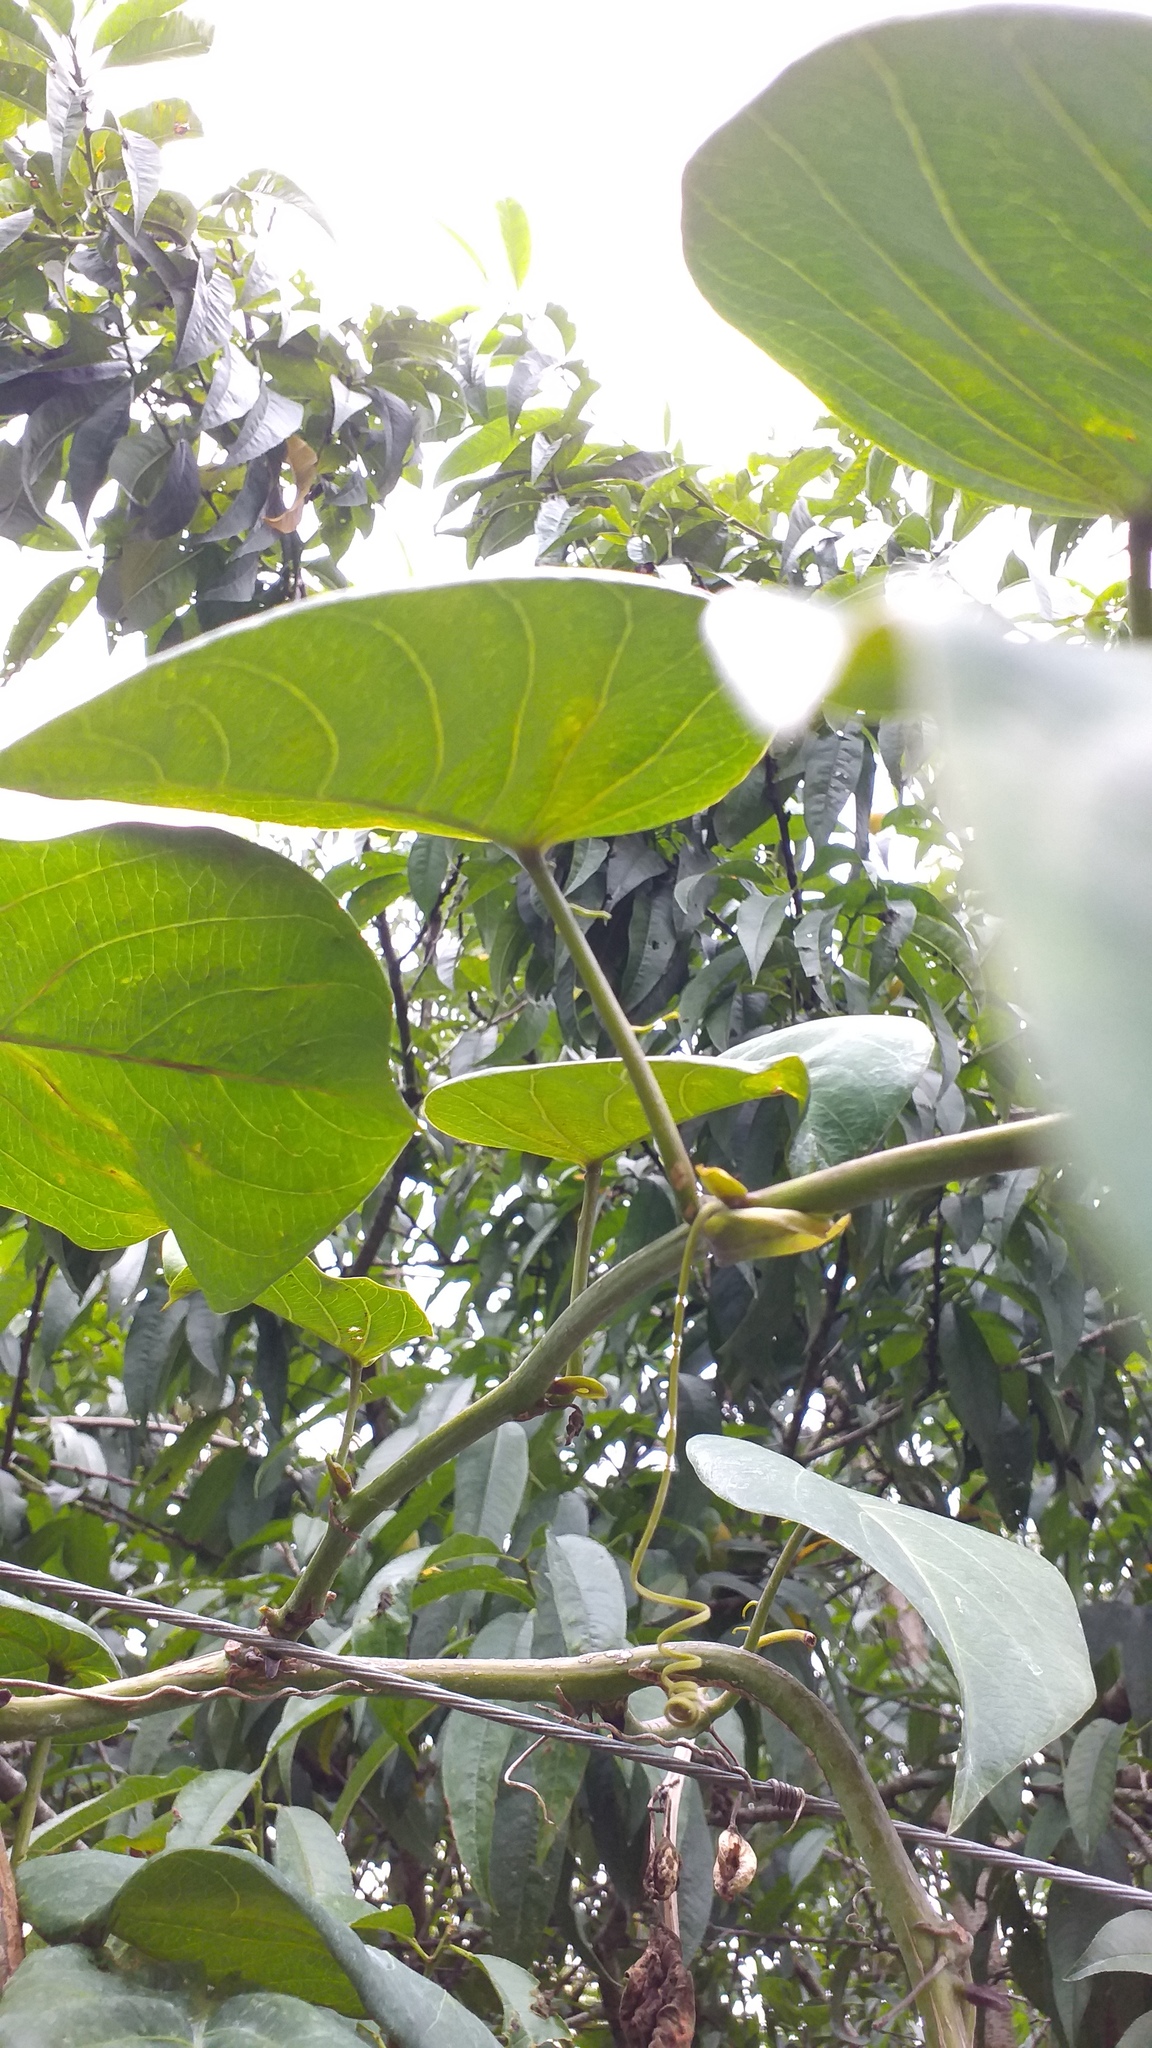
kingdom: Plantae
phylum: Tracheophyta
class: Magnoliopsida
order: Malpighiales
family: Passifloraceae
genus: Passiflora
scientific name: Passiflora ligularis
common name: Sweet granadilla
